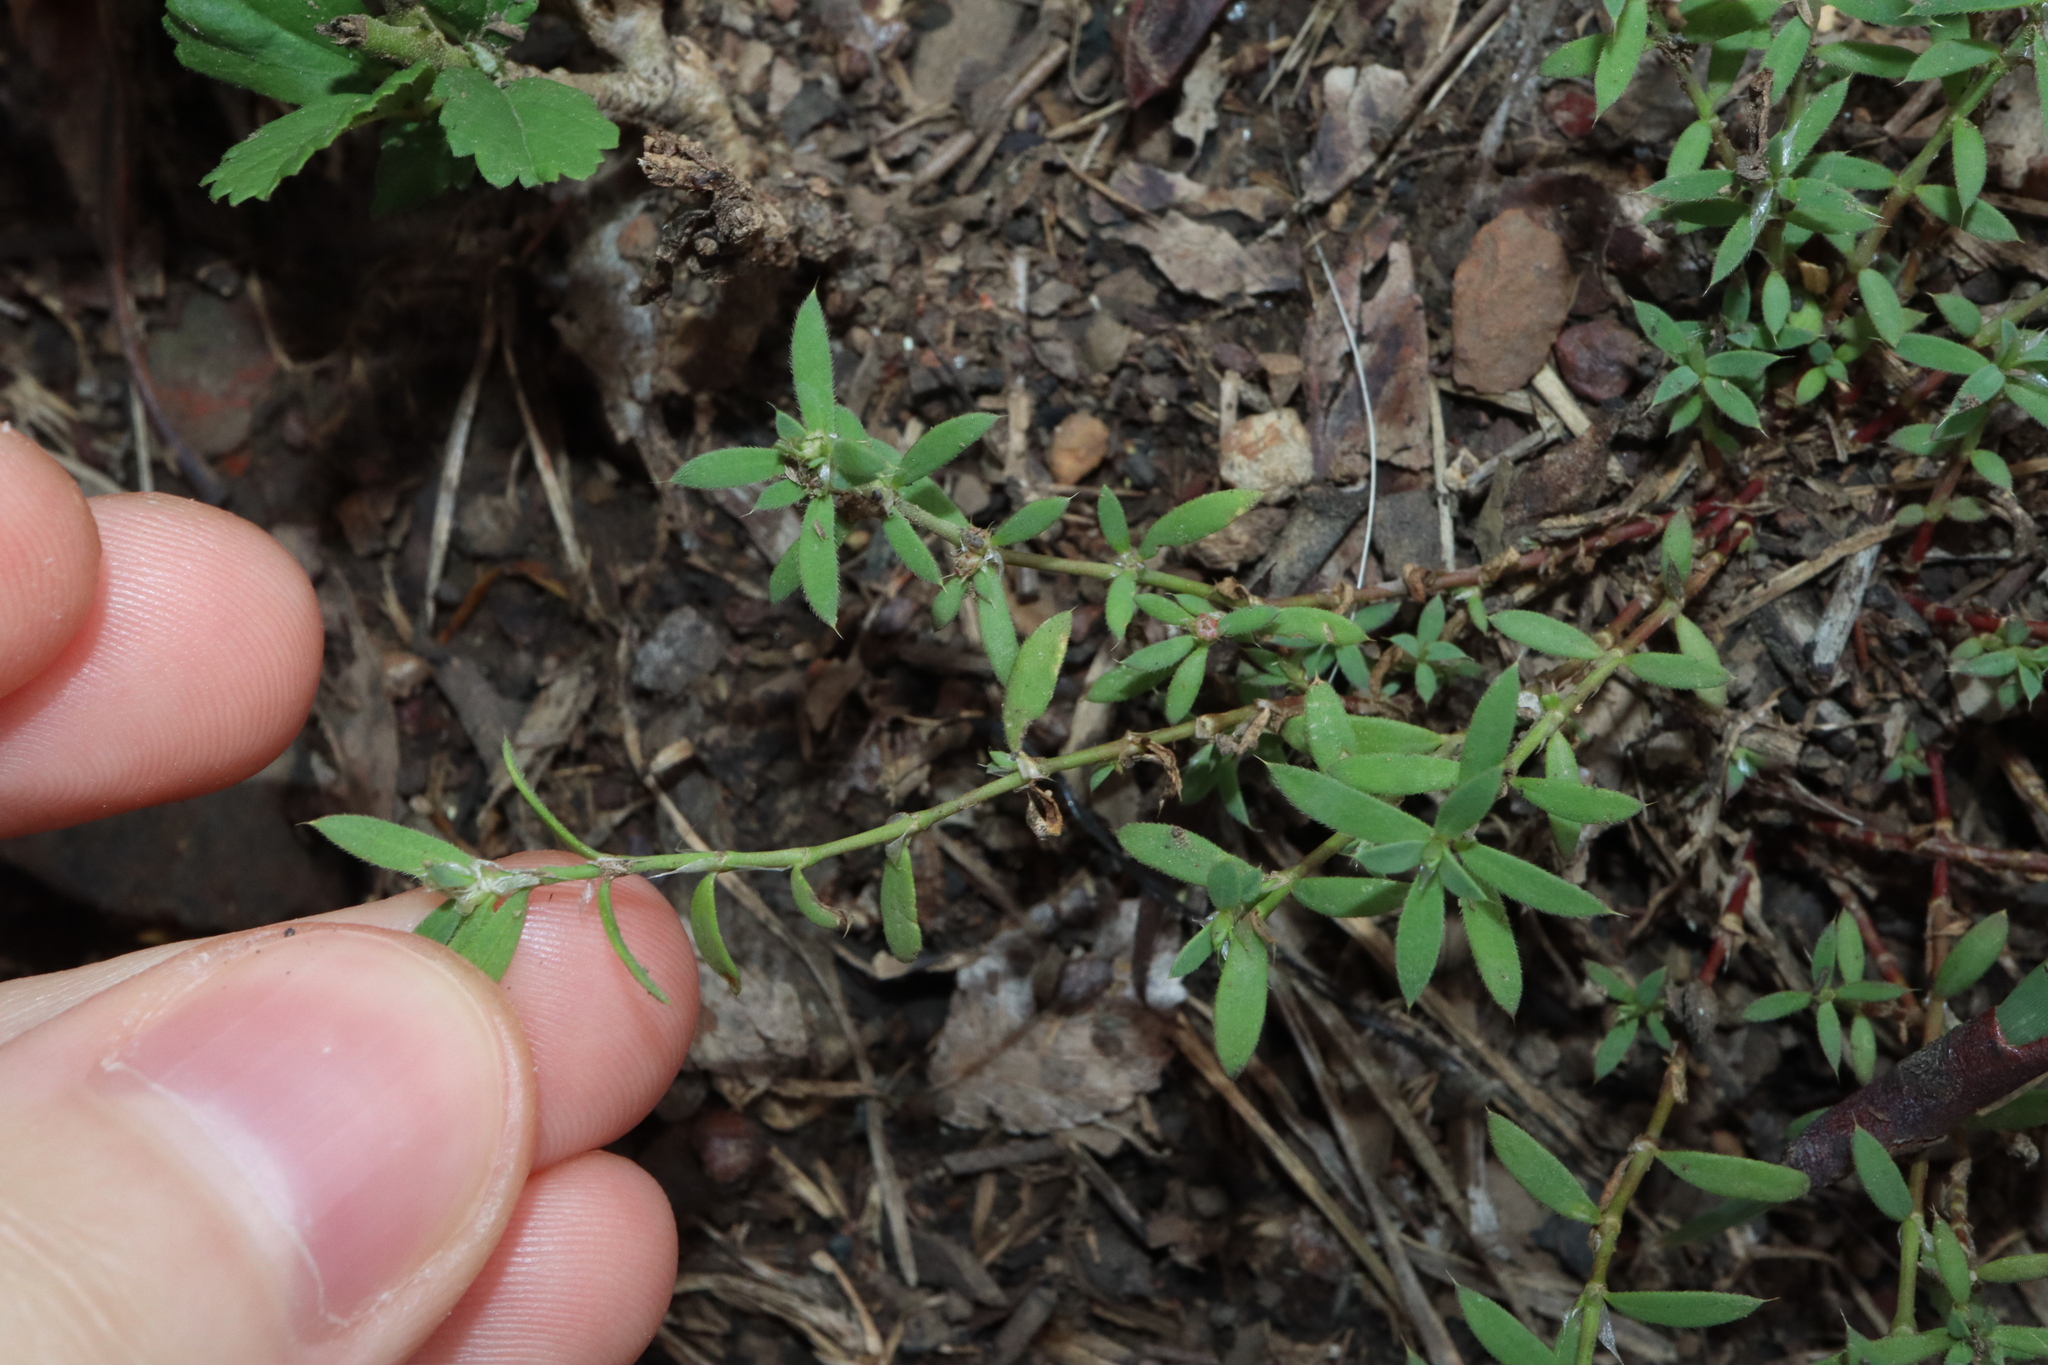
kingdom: Plantae
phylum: Tracheophyta
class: Magnoliopsida
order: Caryophyllales
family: Caryophyllaceae
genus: Paronychia
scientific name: Paronychia brasiliana
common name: Brazilian whitlow
